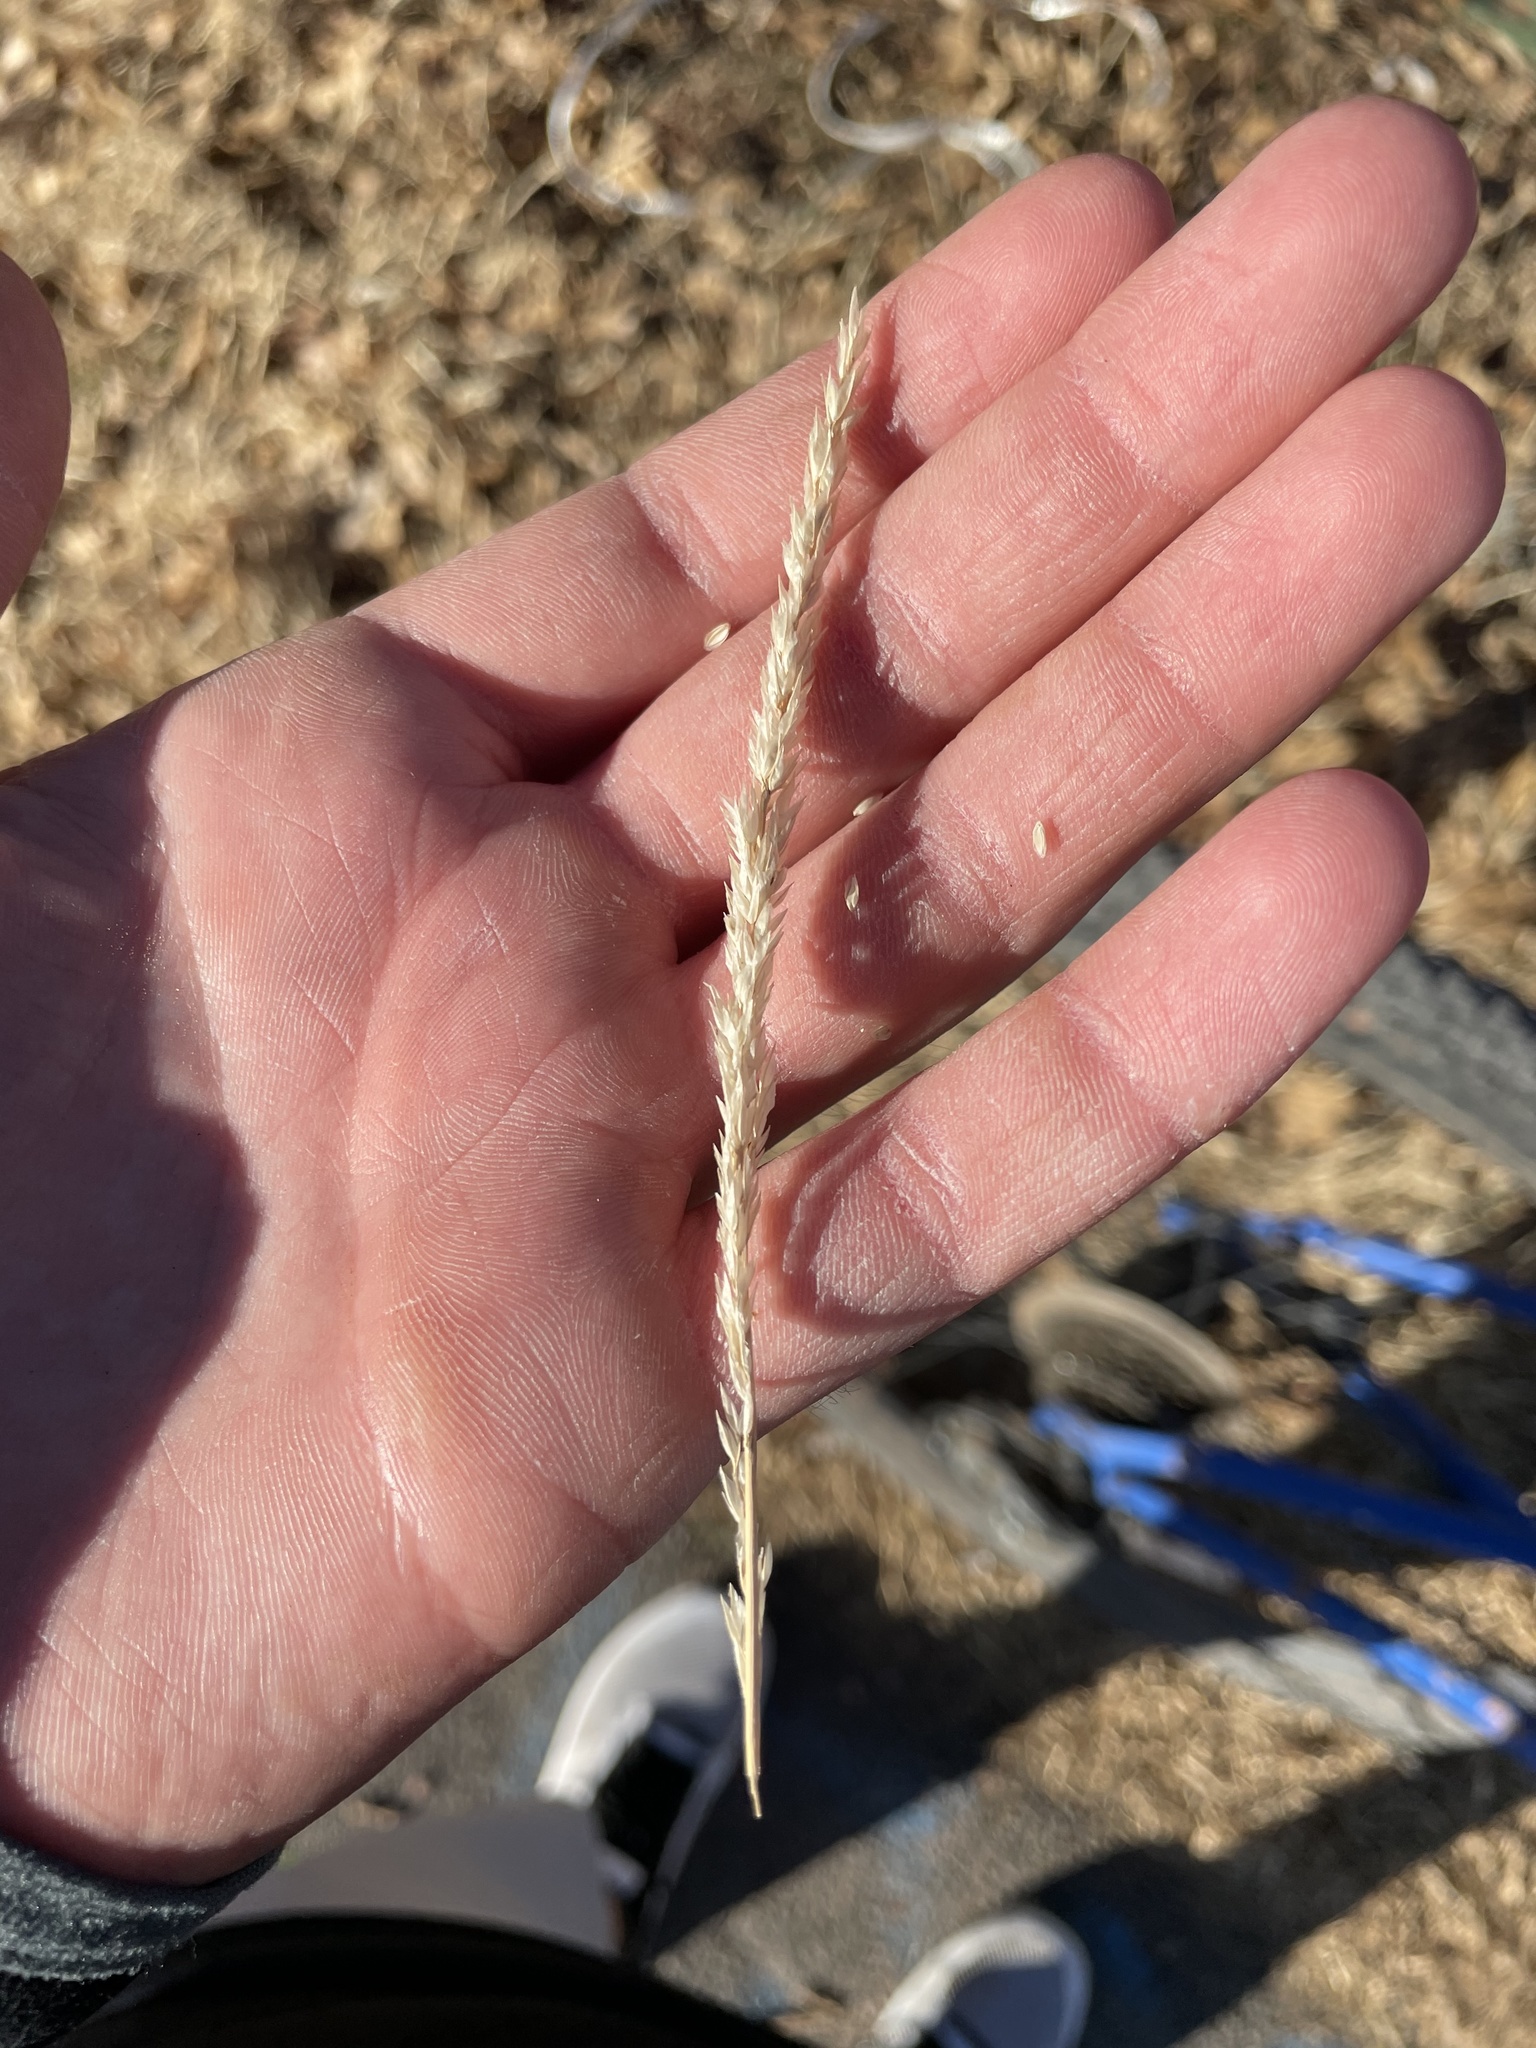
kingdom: Plantae
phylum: Tracheophyta
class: Liliopsida
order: Poales
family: Poaceae
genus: Tridens
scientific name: Tridens albescens
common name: White tridens
